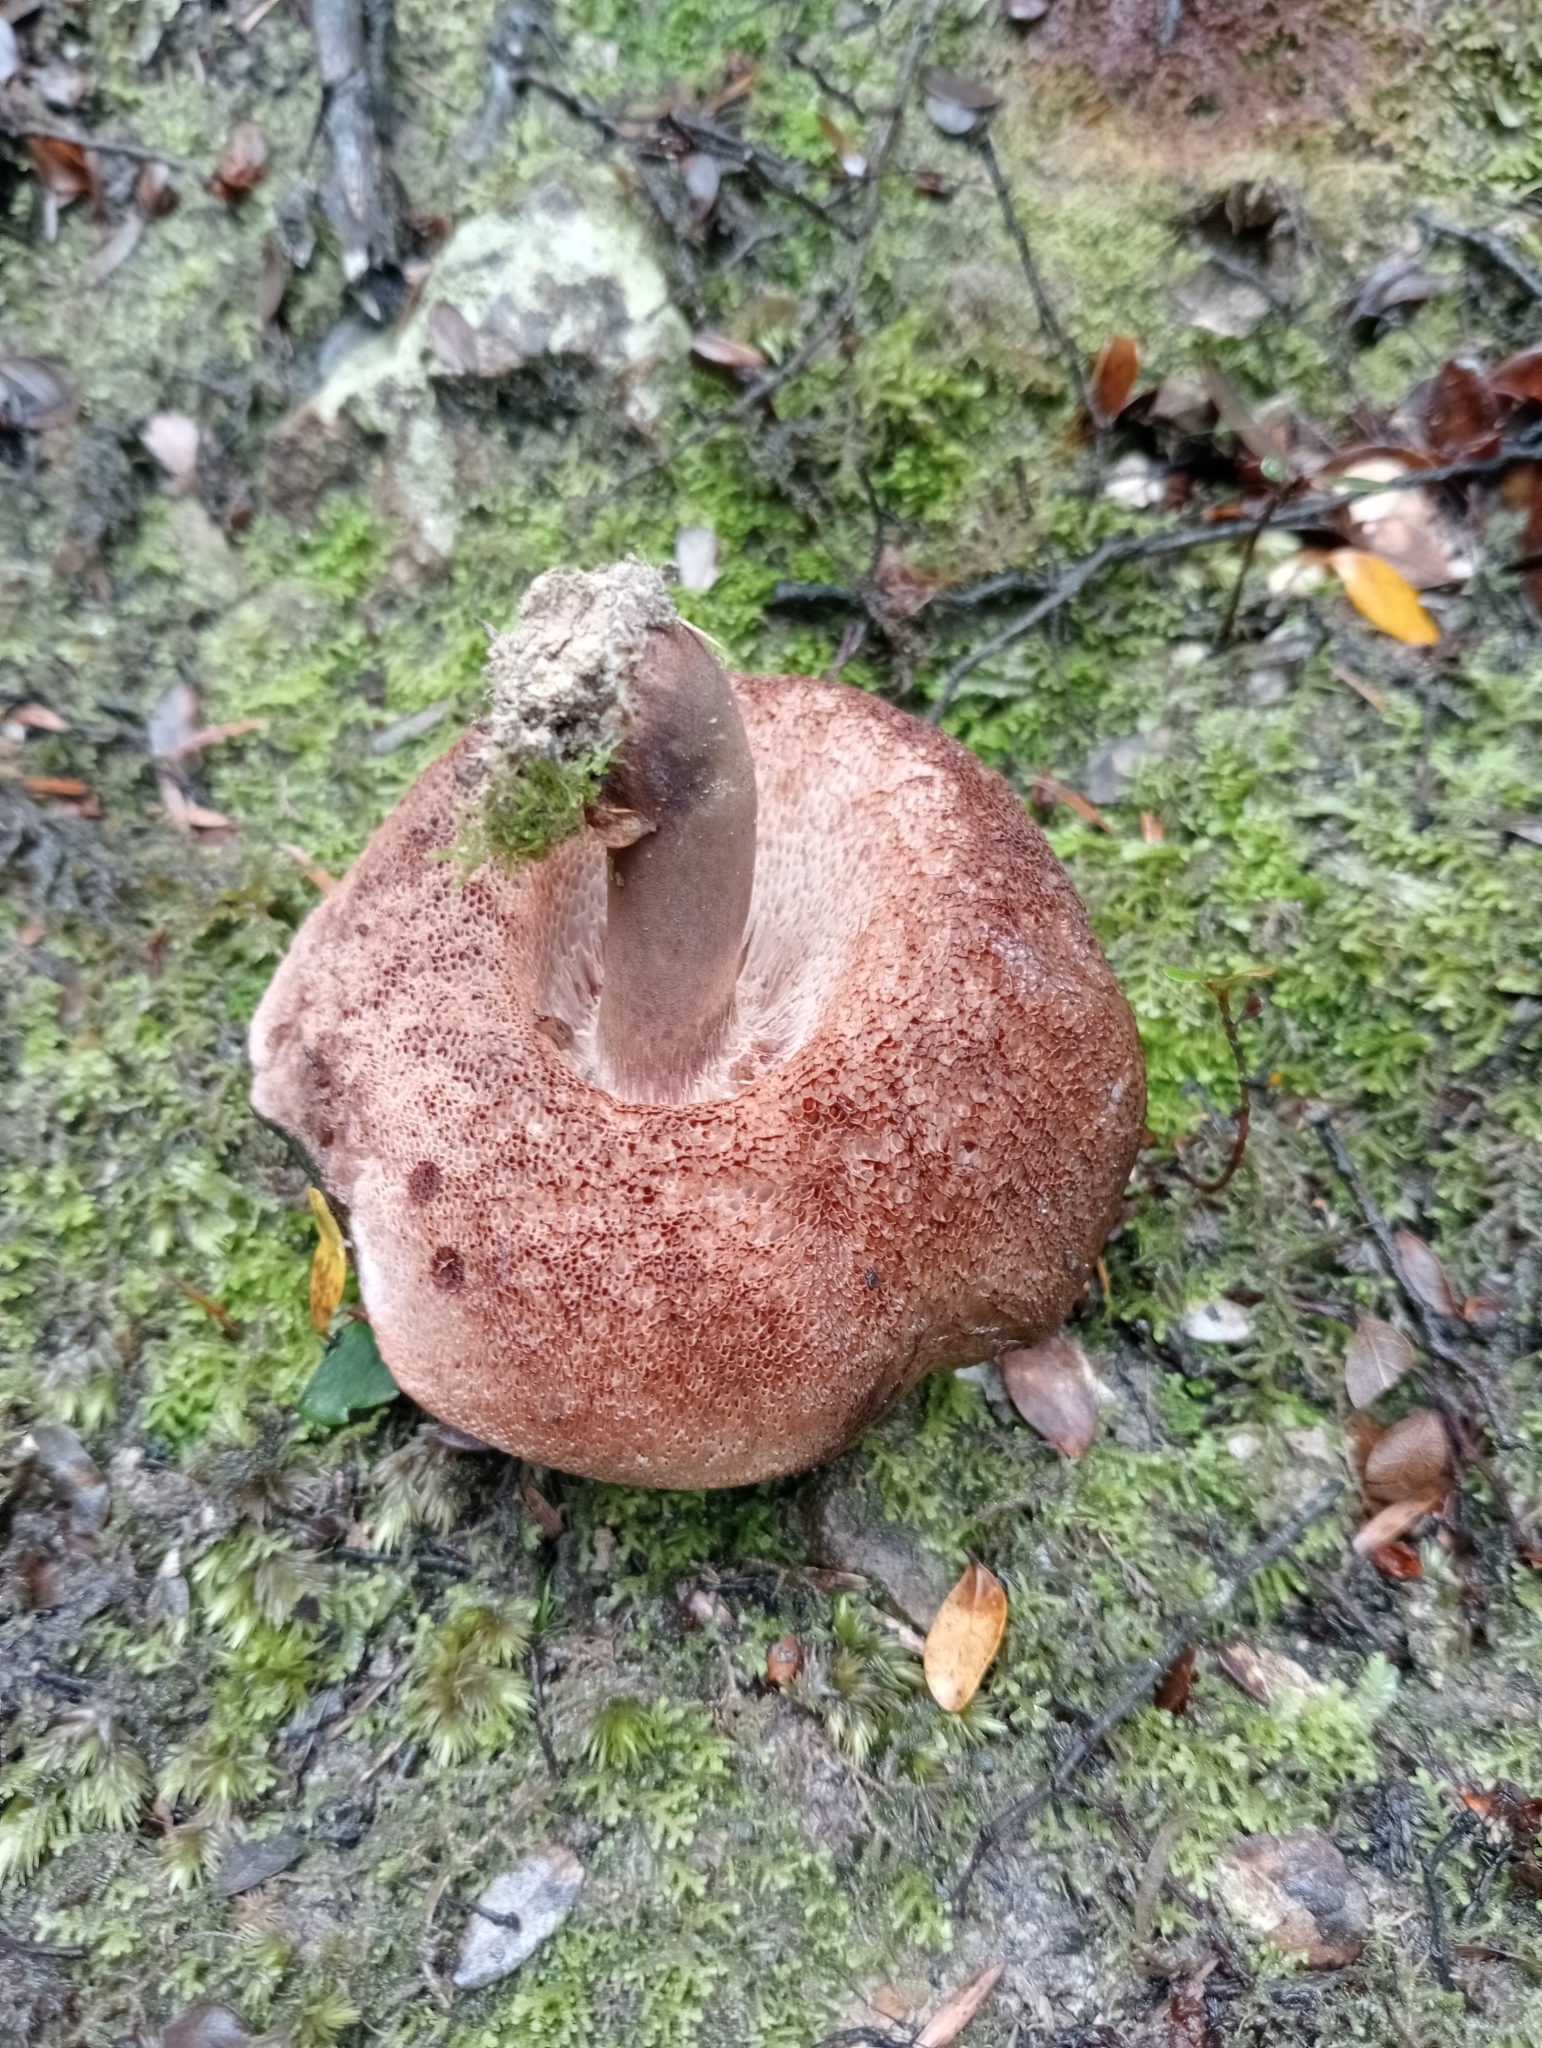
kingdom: Fungi
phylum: Basidiomycota
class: Agaricomycetes
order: Boletales
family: Boletaceae
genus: Porphyrellus
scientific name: Porphyrellus formosus
